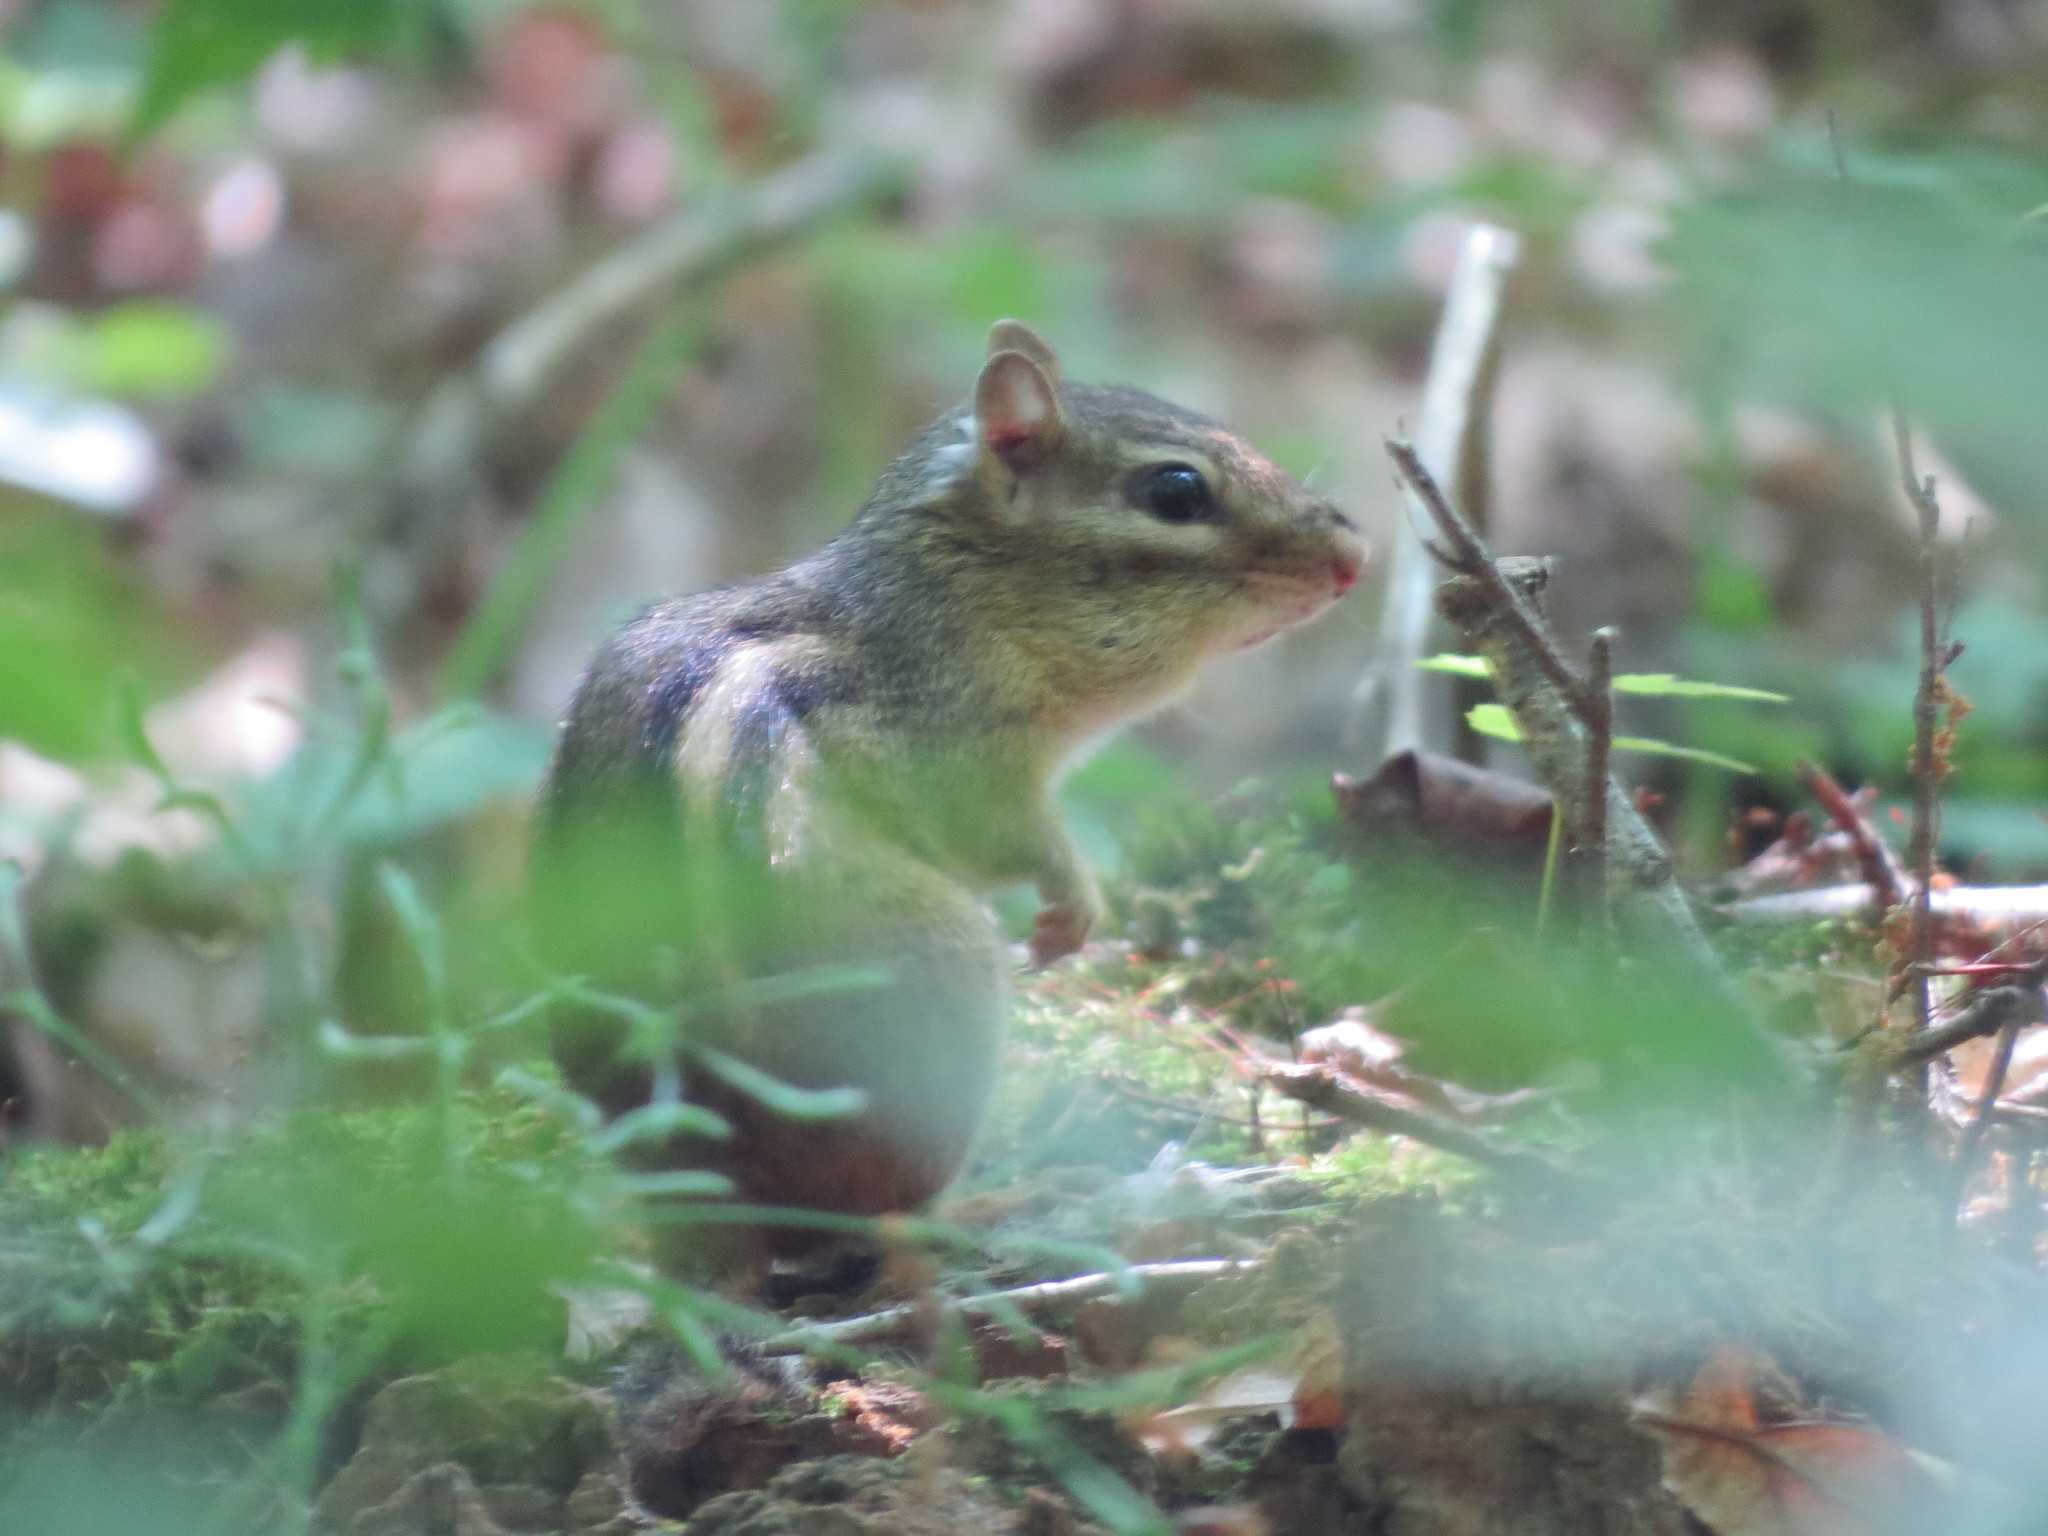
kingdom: Animalia
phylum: Chordata
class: Mammalia
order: Rodentia
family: Sciuridae
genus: Tamias
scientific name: Tamias striatus
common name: Eastern chipmunk
